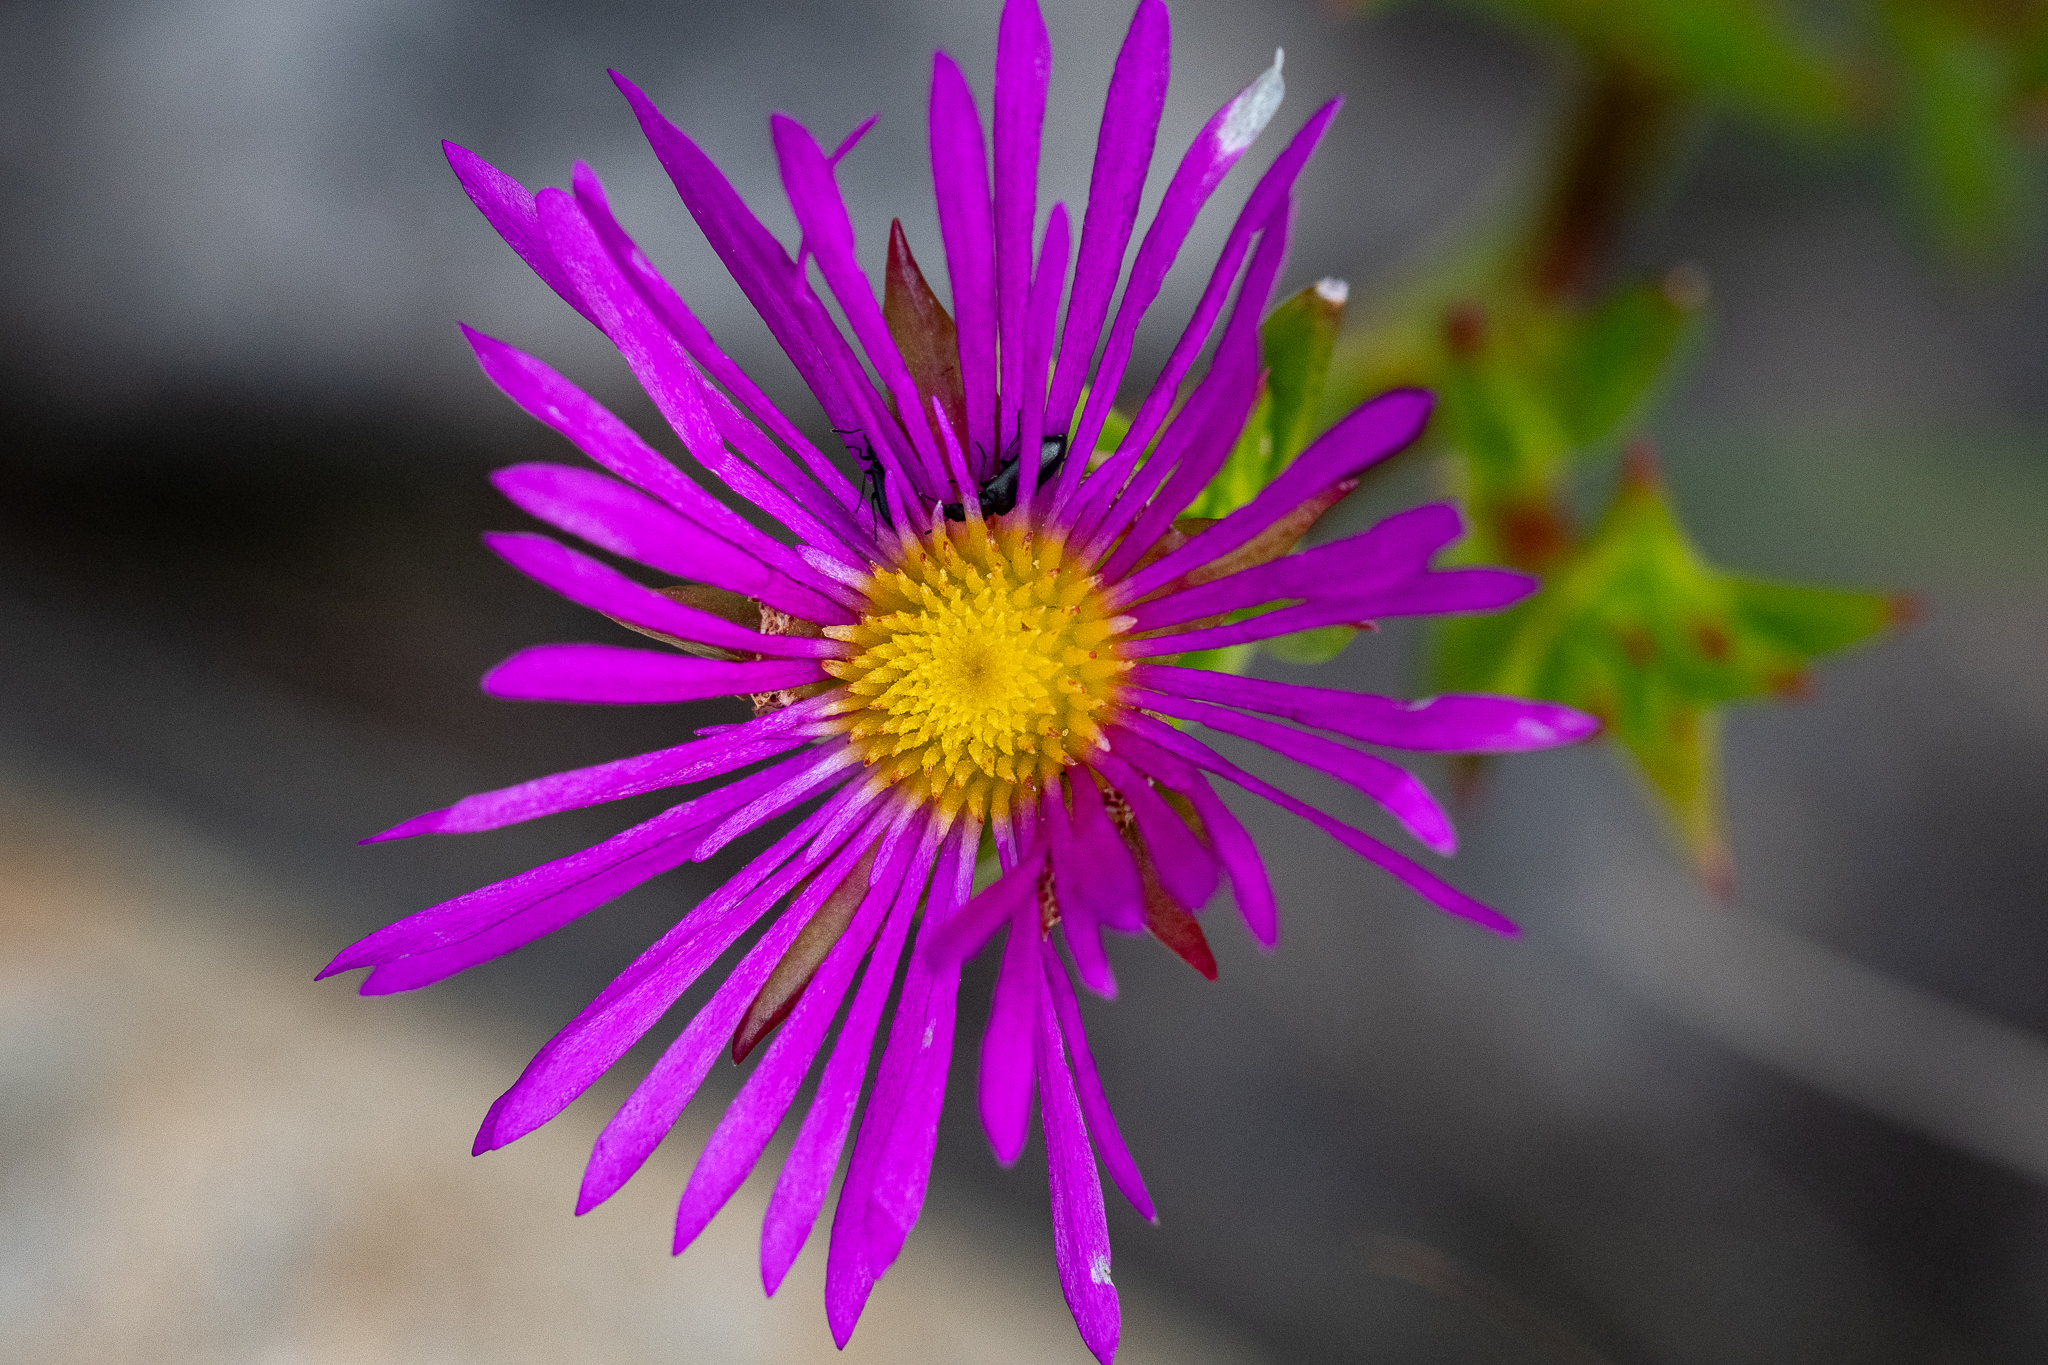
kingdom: Plantae
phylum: Tracheophyta
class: Magnoliopsida
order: Caryophyllales
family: Aizoaceae
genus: Erepsia
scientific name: Erepsia anceps
